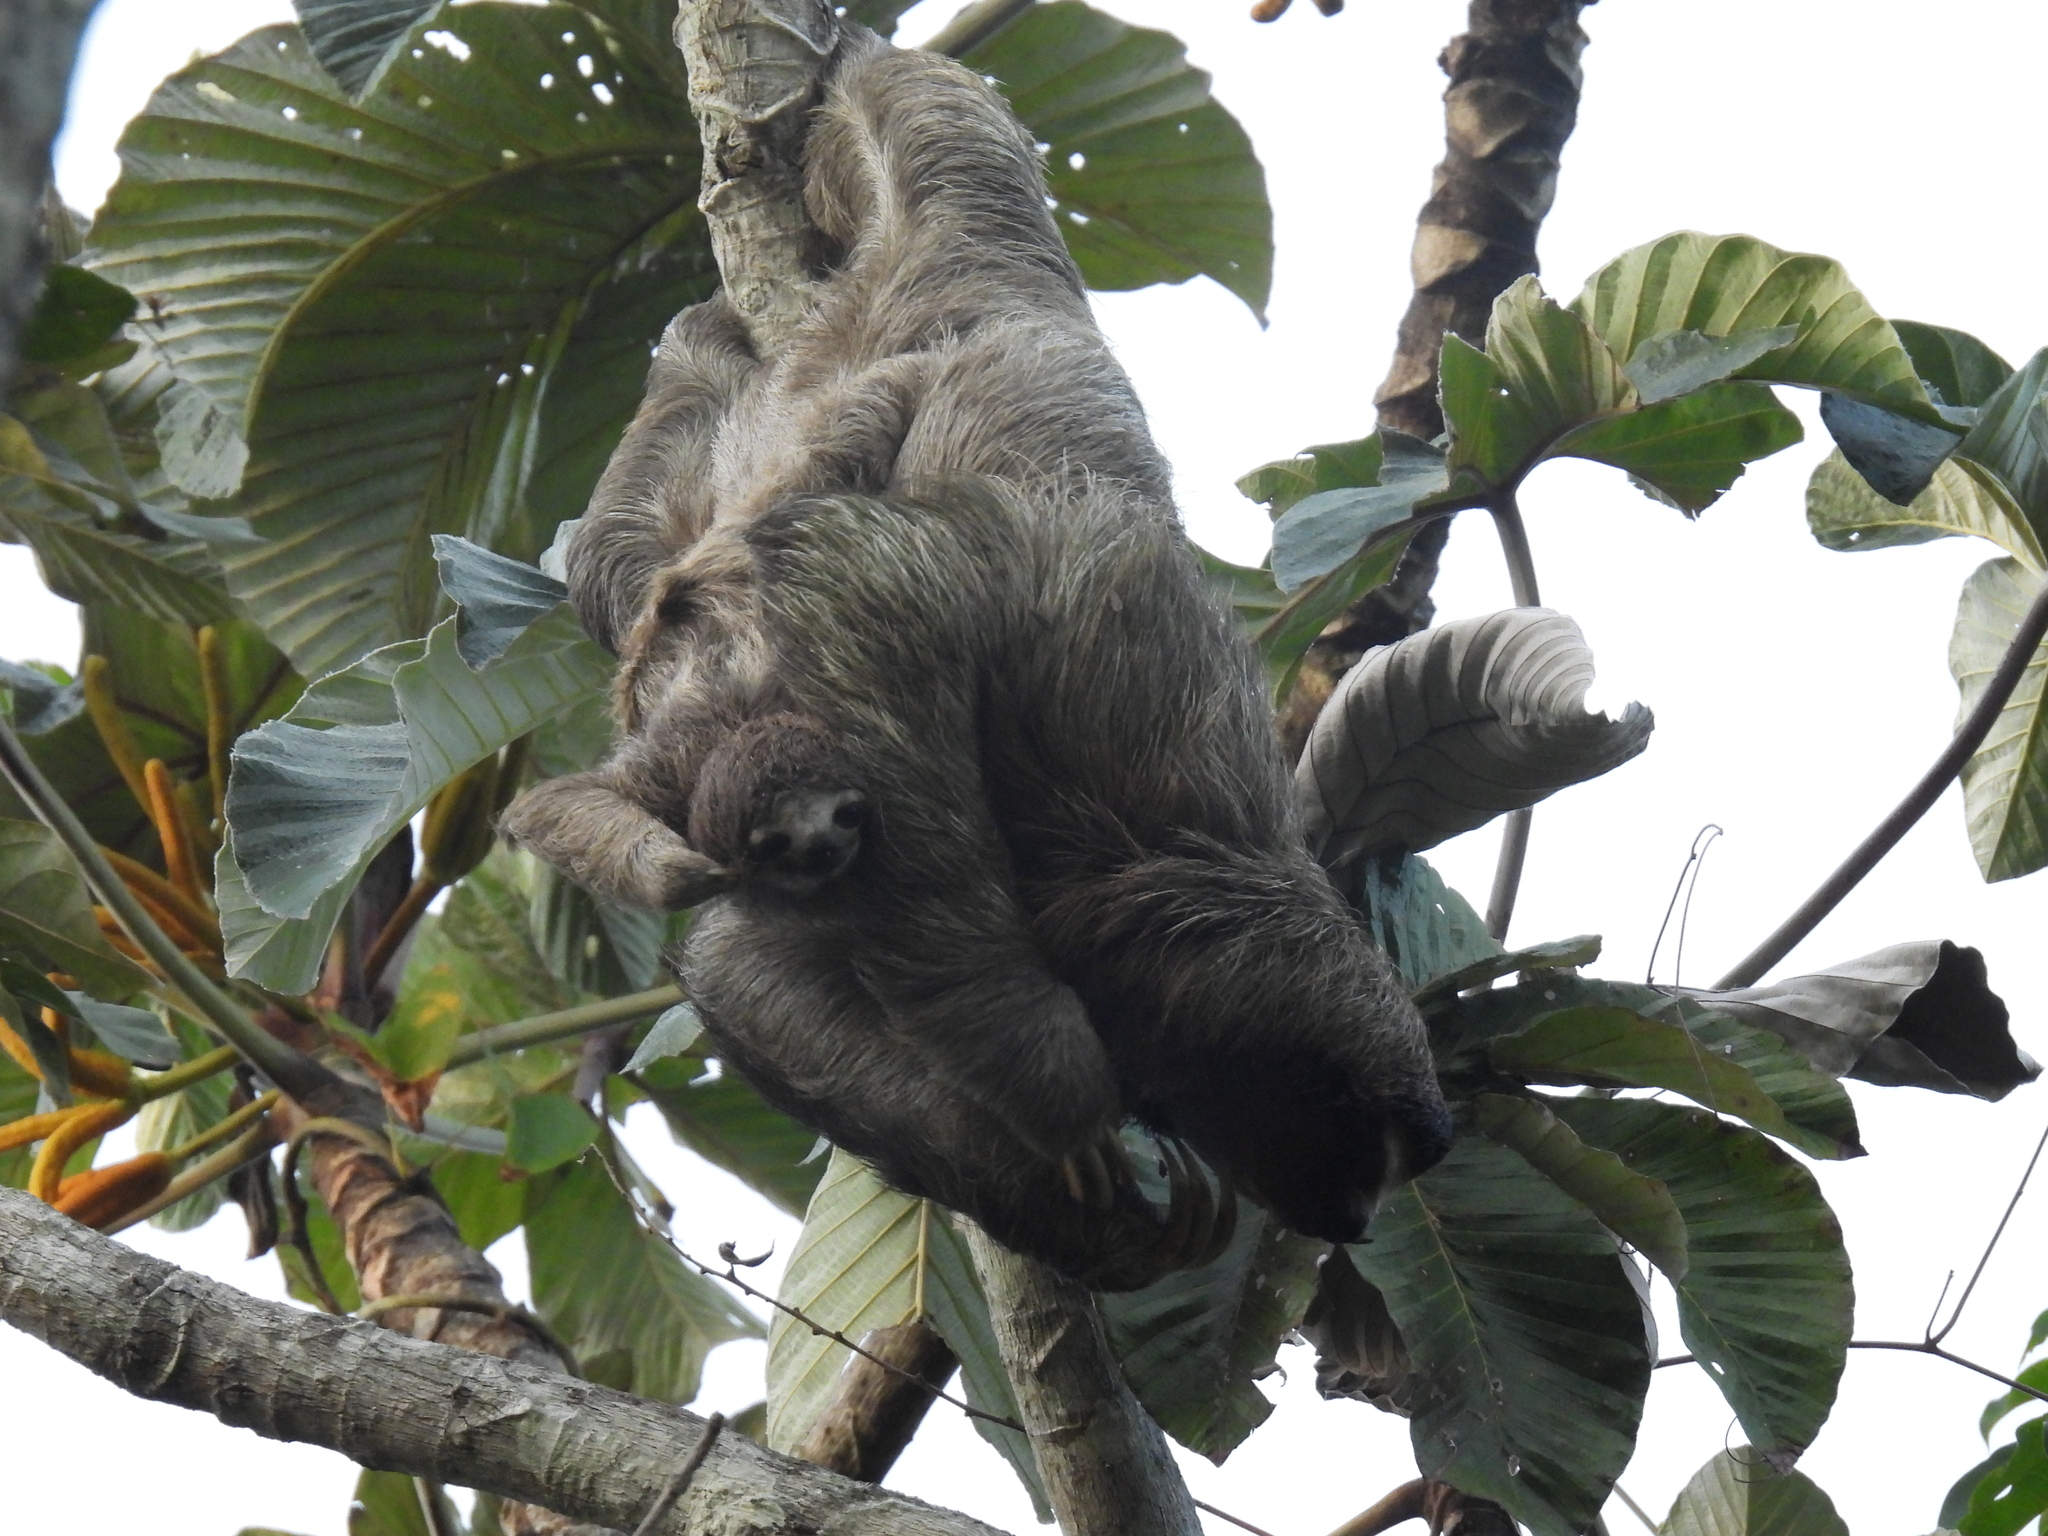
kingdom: Animalia
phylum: Chordata
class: Mammalia
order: Pilosa
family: Bradypodidae
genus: Bradypus
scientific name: Bradypus variegatus
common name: Brown-throated three-toed sloth
